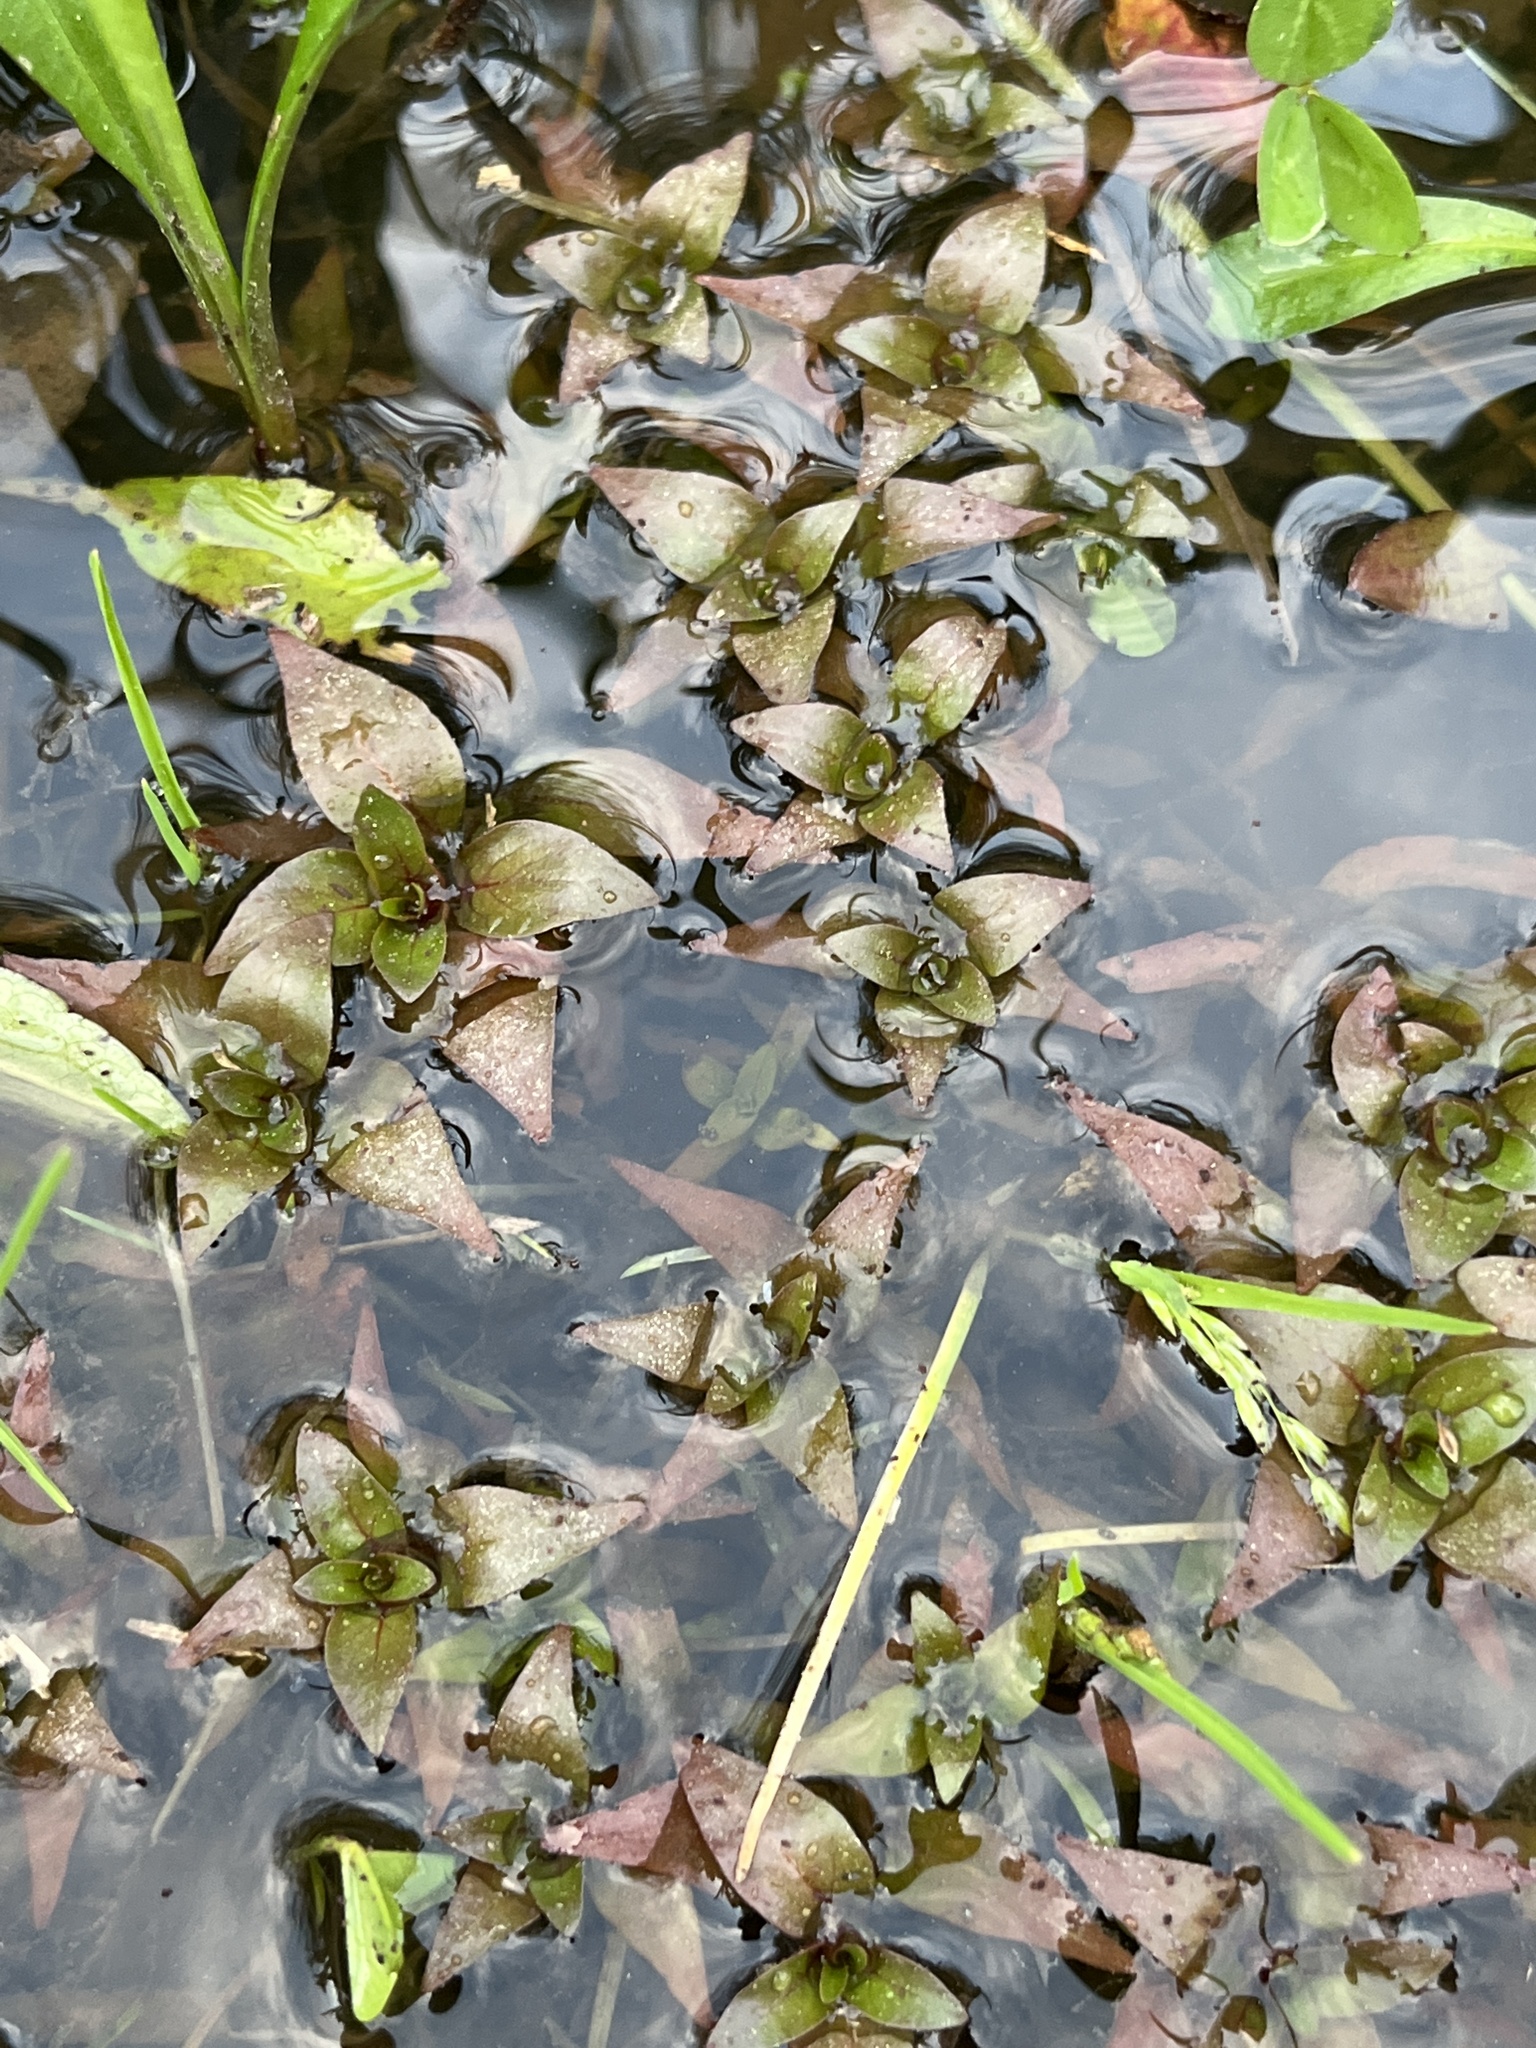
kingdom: Plantae
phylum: Tracheophyta
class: Magnoliopsida
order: Myrtales
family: Onagraceae
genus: Ludwigia
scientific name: Ludwigia palustris
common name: Hampshire-purslane
